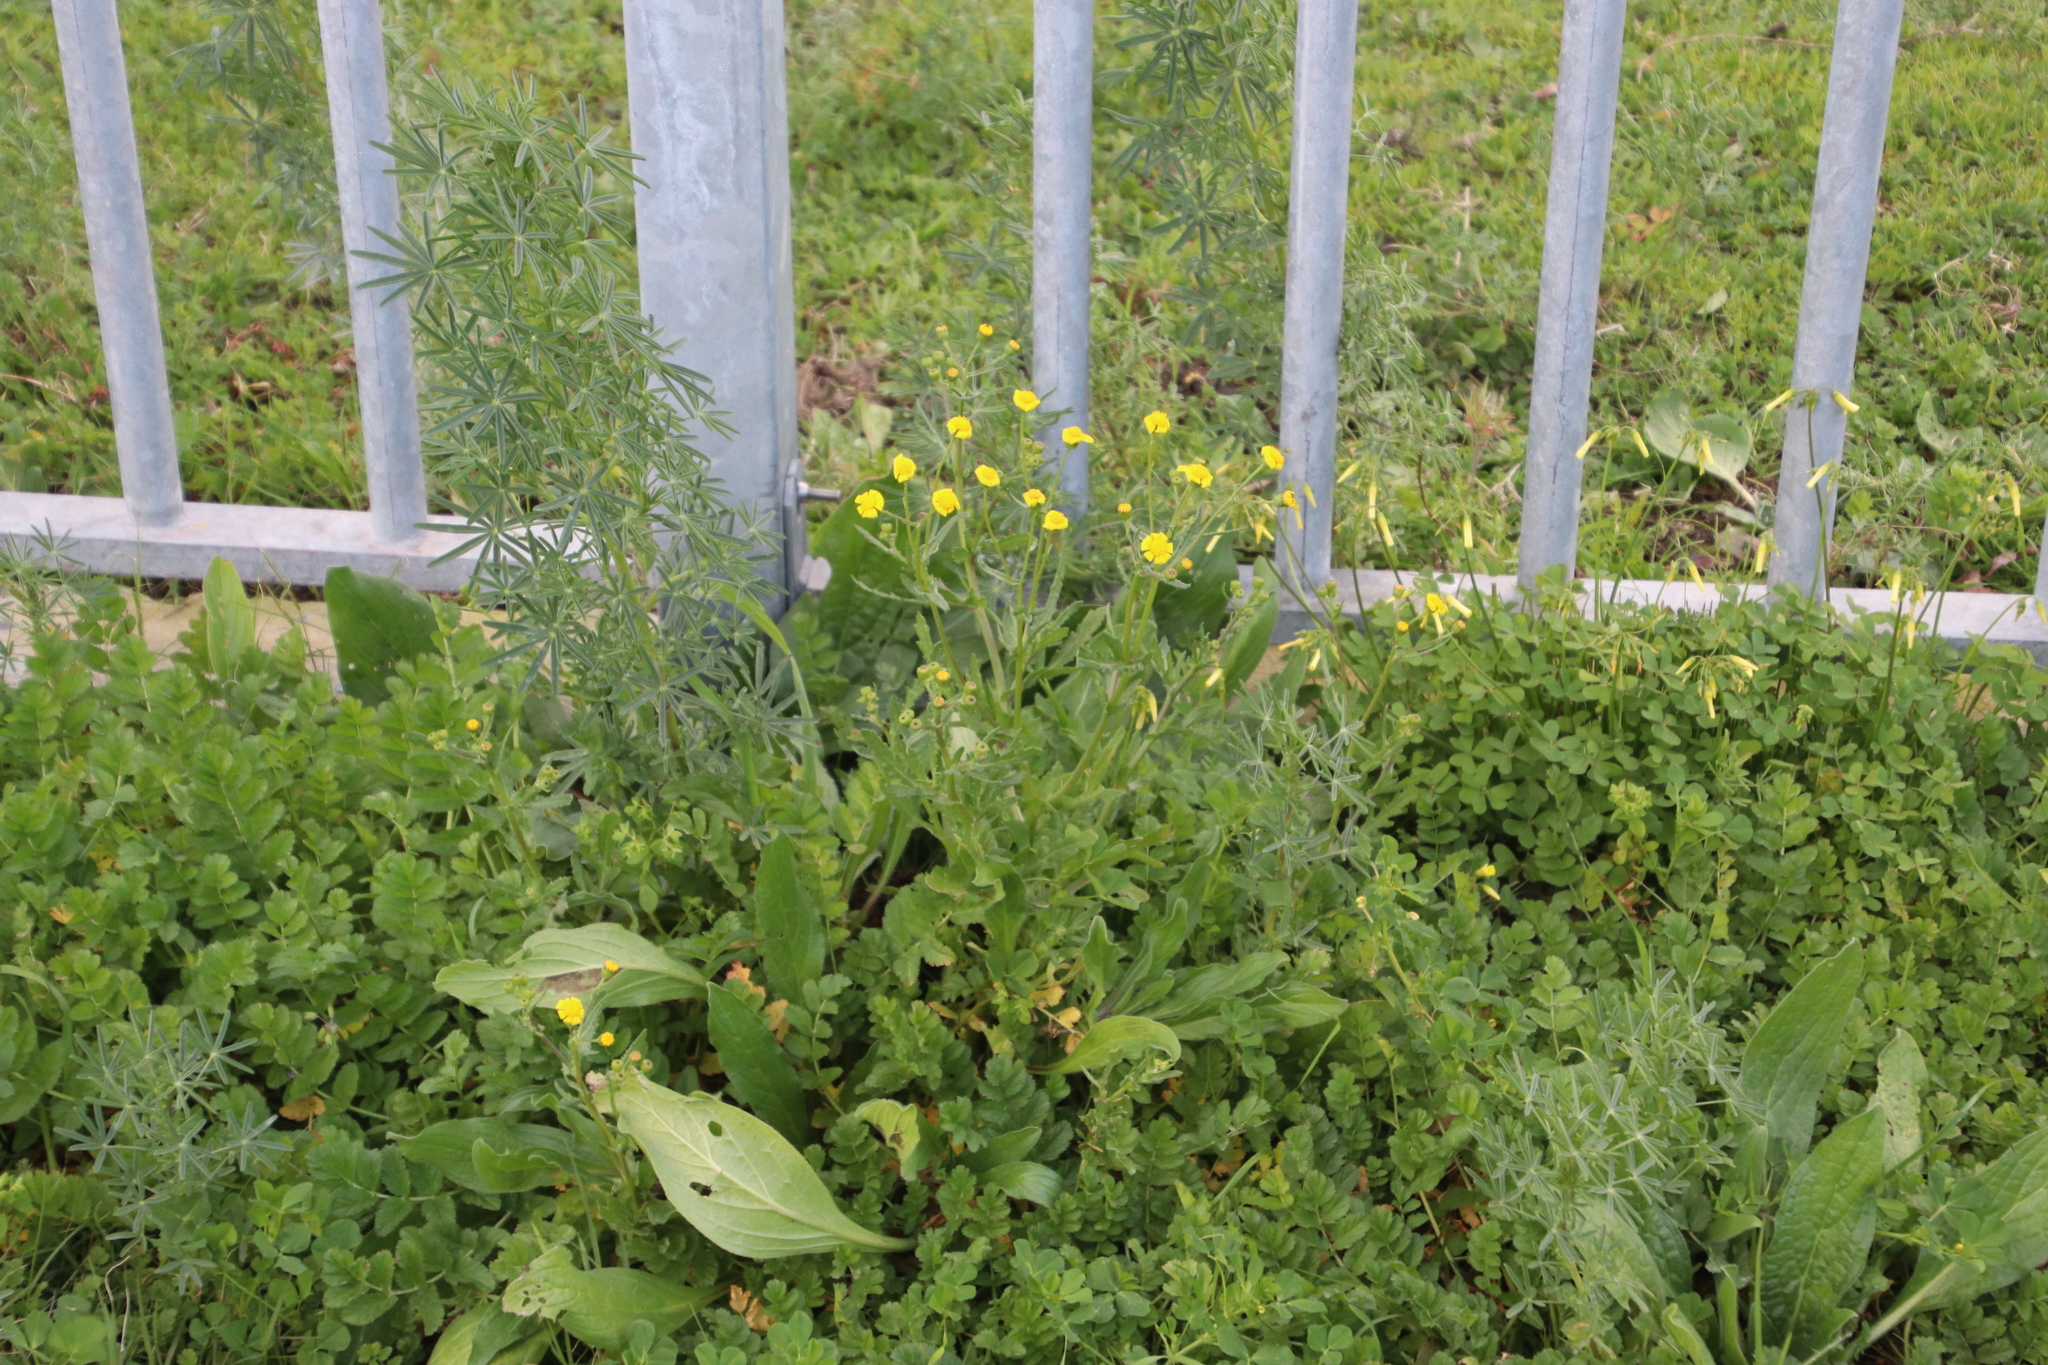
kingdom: Plantae
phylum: Tracheophyta
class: Magnoliopsida
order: Asterales
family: Asteraceae
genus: Senecio
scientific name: Senecio littoreus
